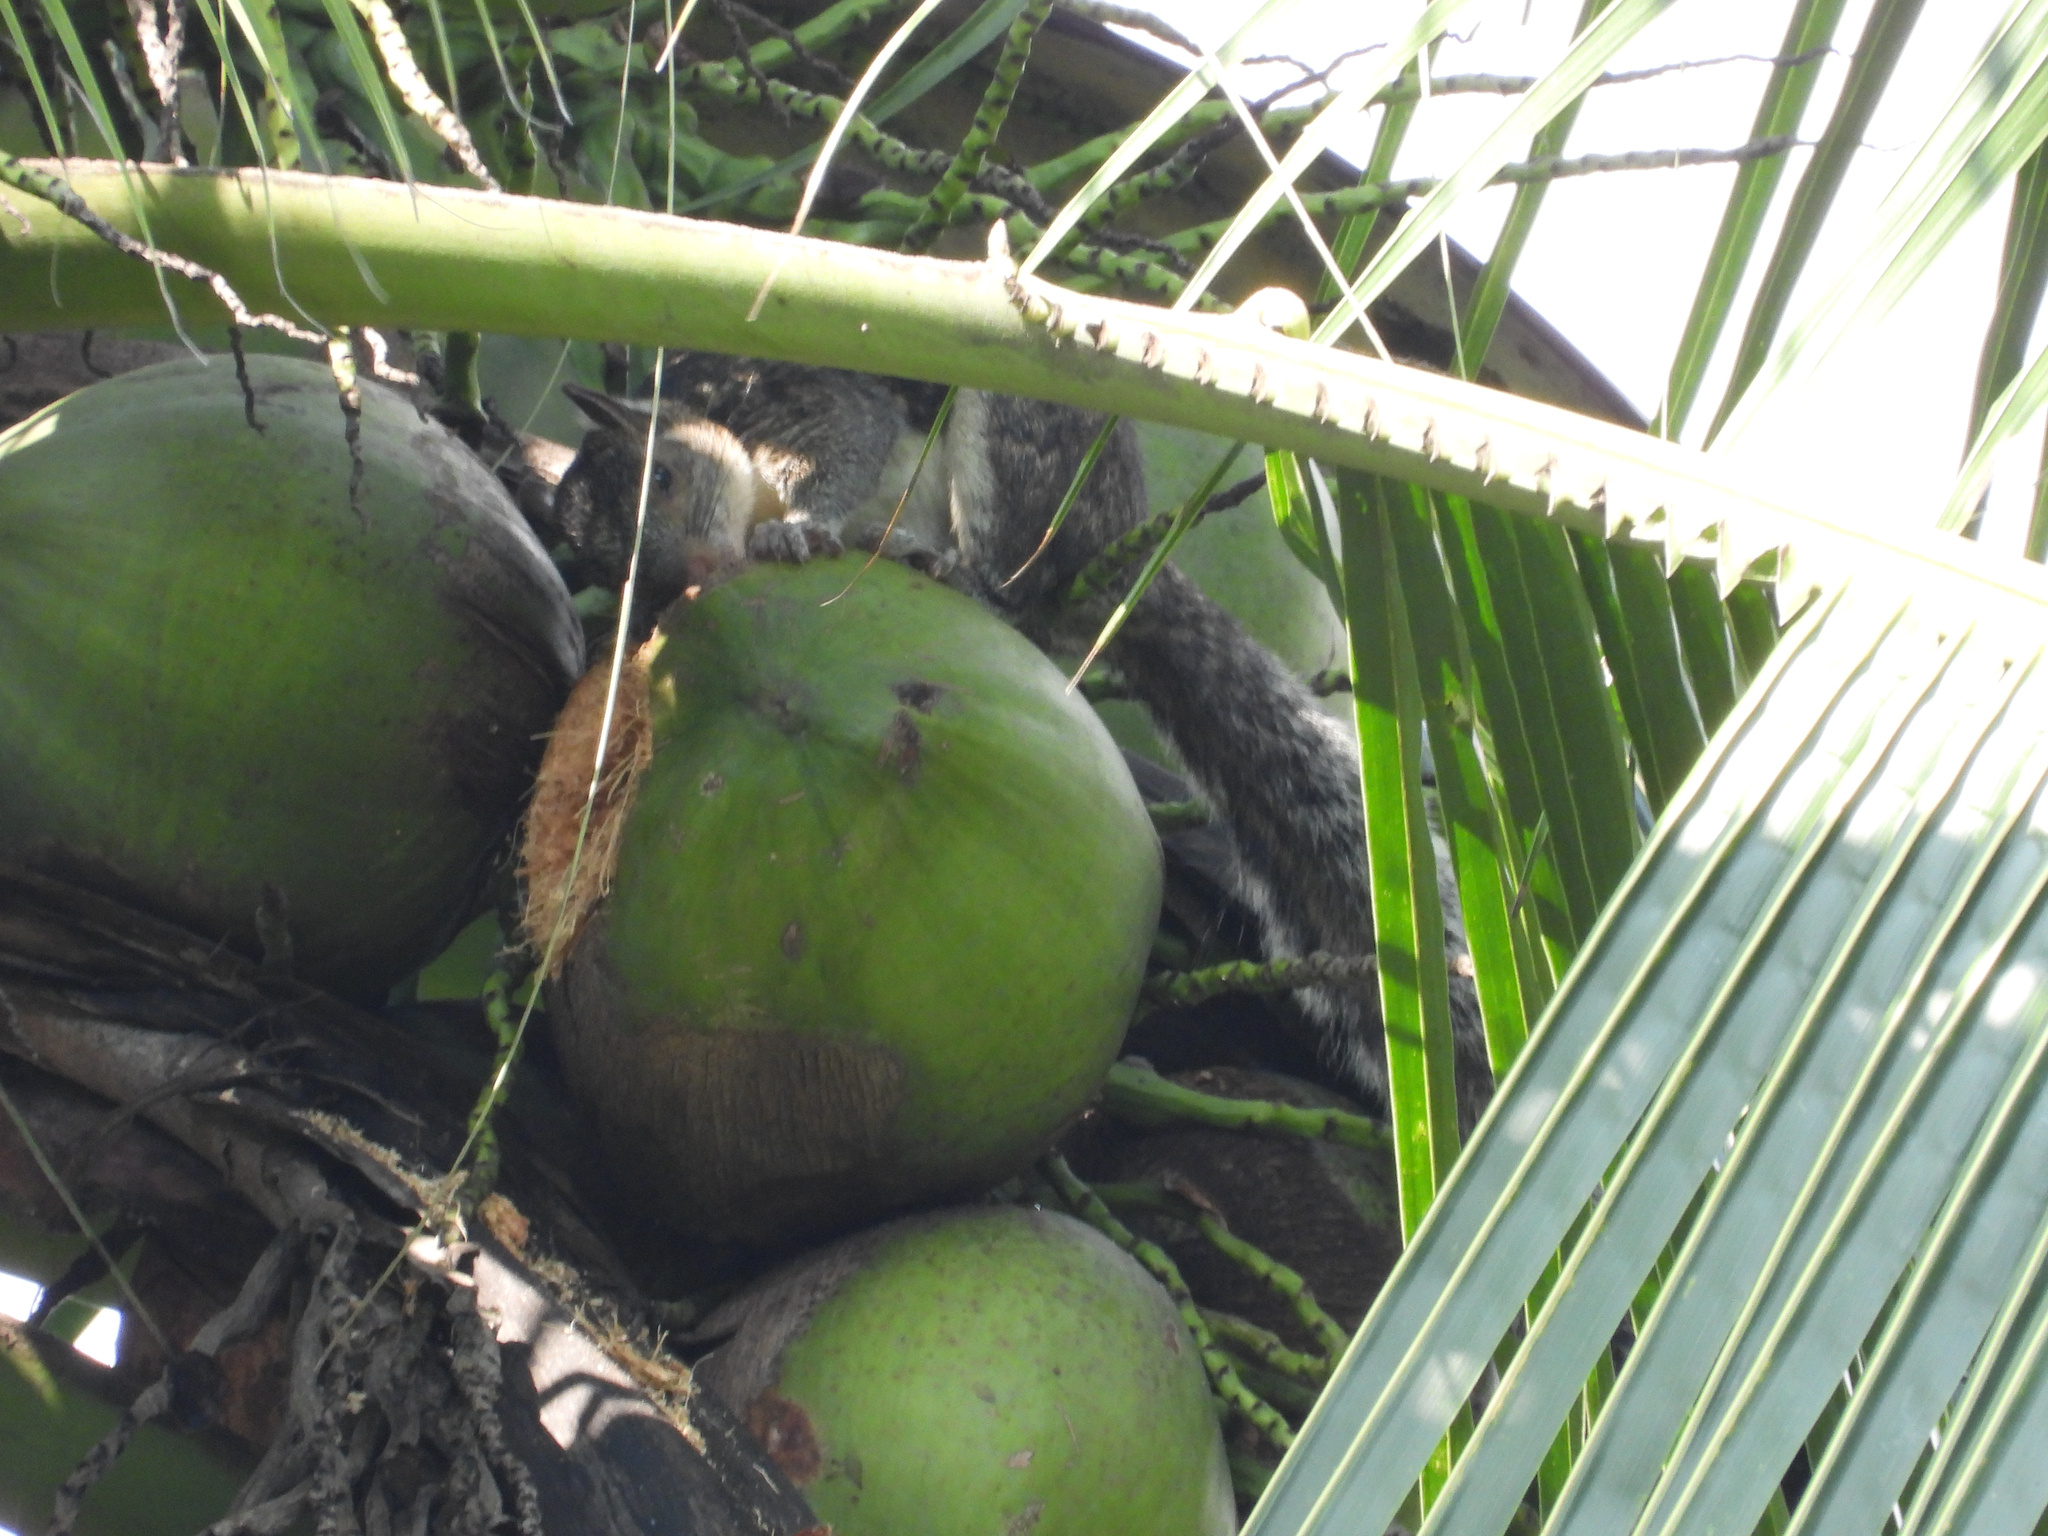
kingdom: Animalia
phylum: Chordata
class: Mammalia
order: Rodentia
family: Sciuridae
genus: Sciurus
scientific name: Sciurus variegatoides
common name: Variegated squirrel
